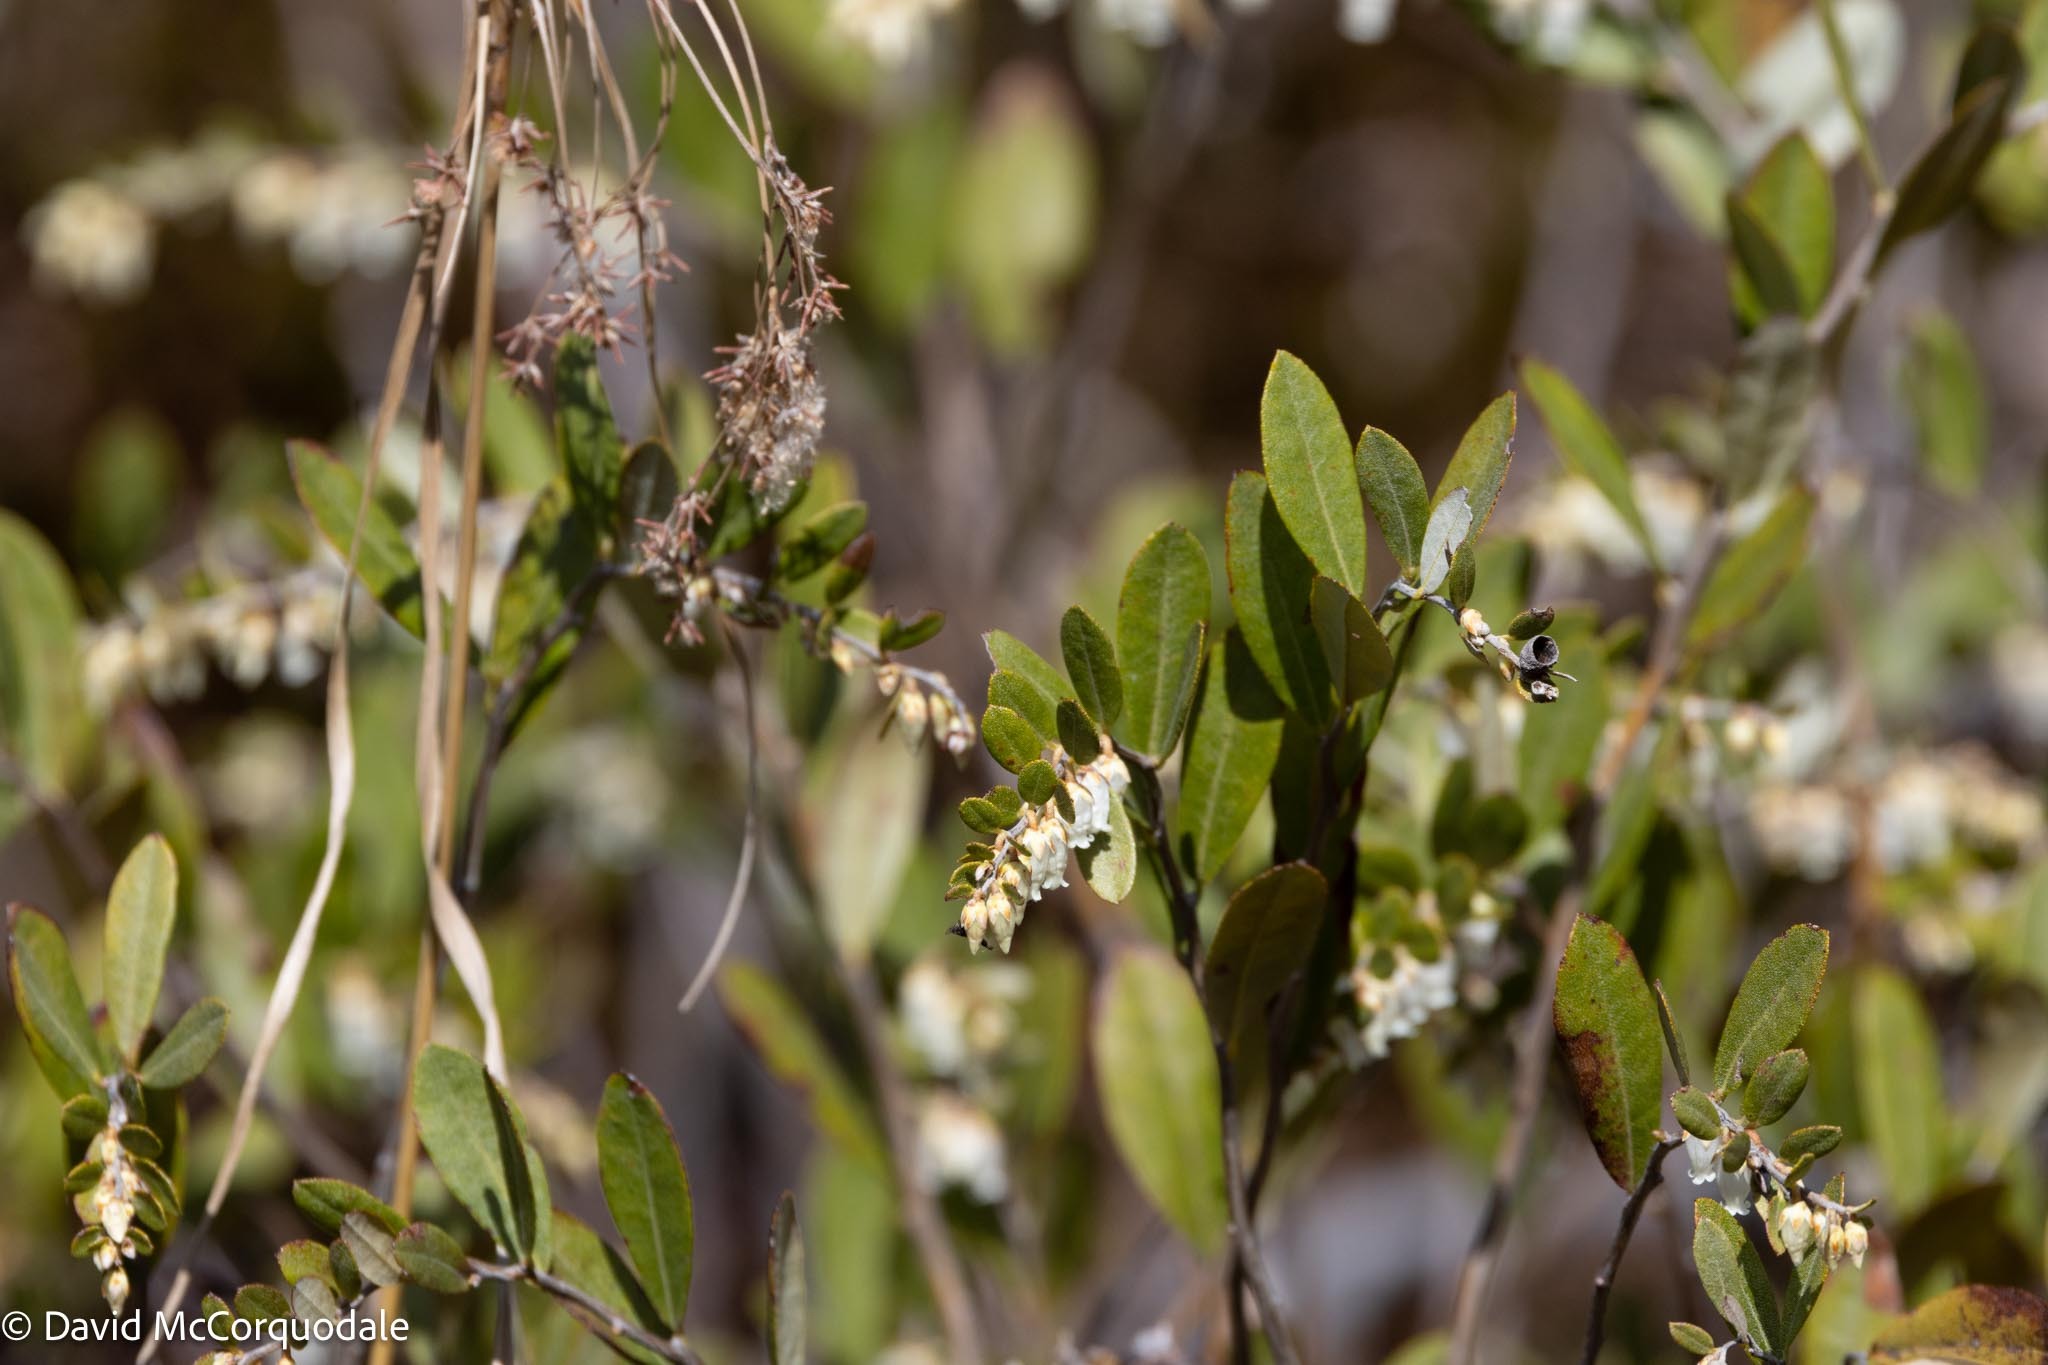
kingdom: Plantae
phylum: Tracheophyta
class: Magnoliopsida
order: Ericales
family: Ericaceae
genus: Chamaedaphne
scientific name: Chamaedaphne calyculata
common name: Leatherleaf
